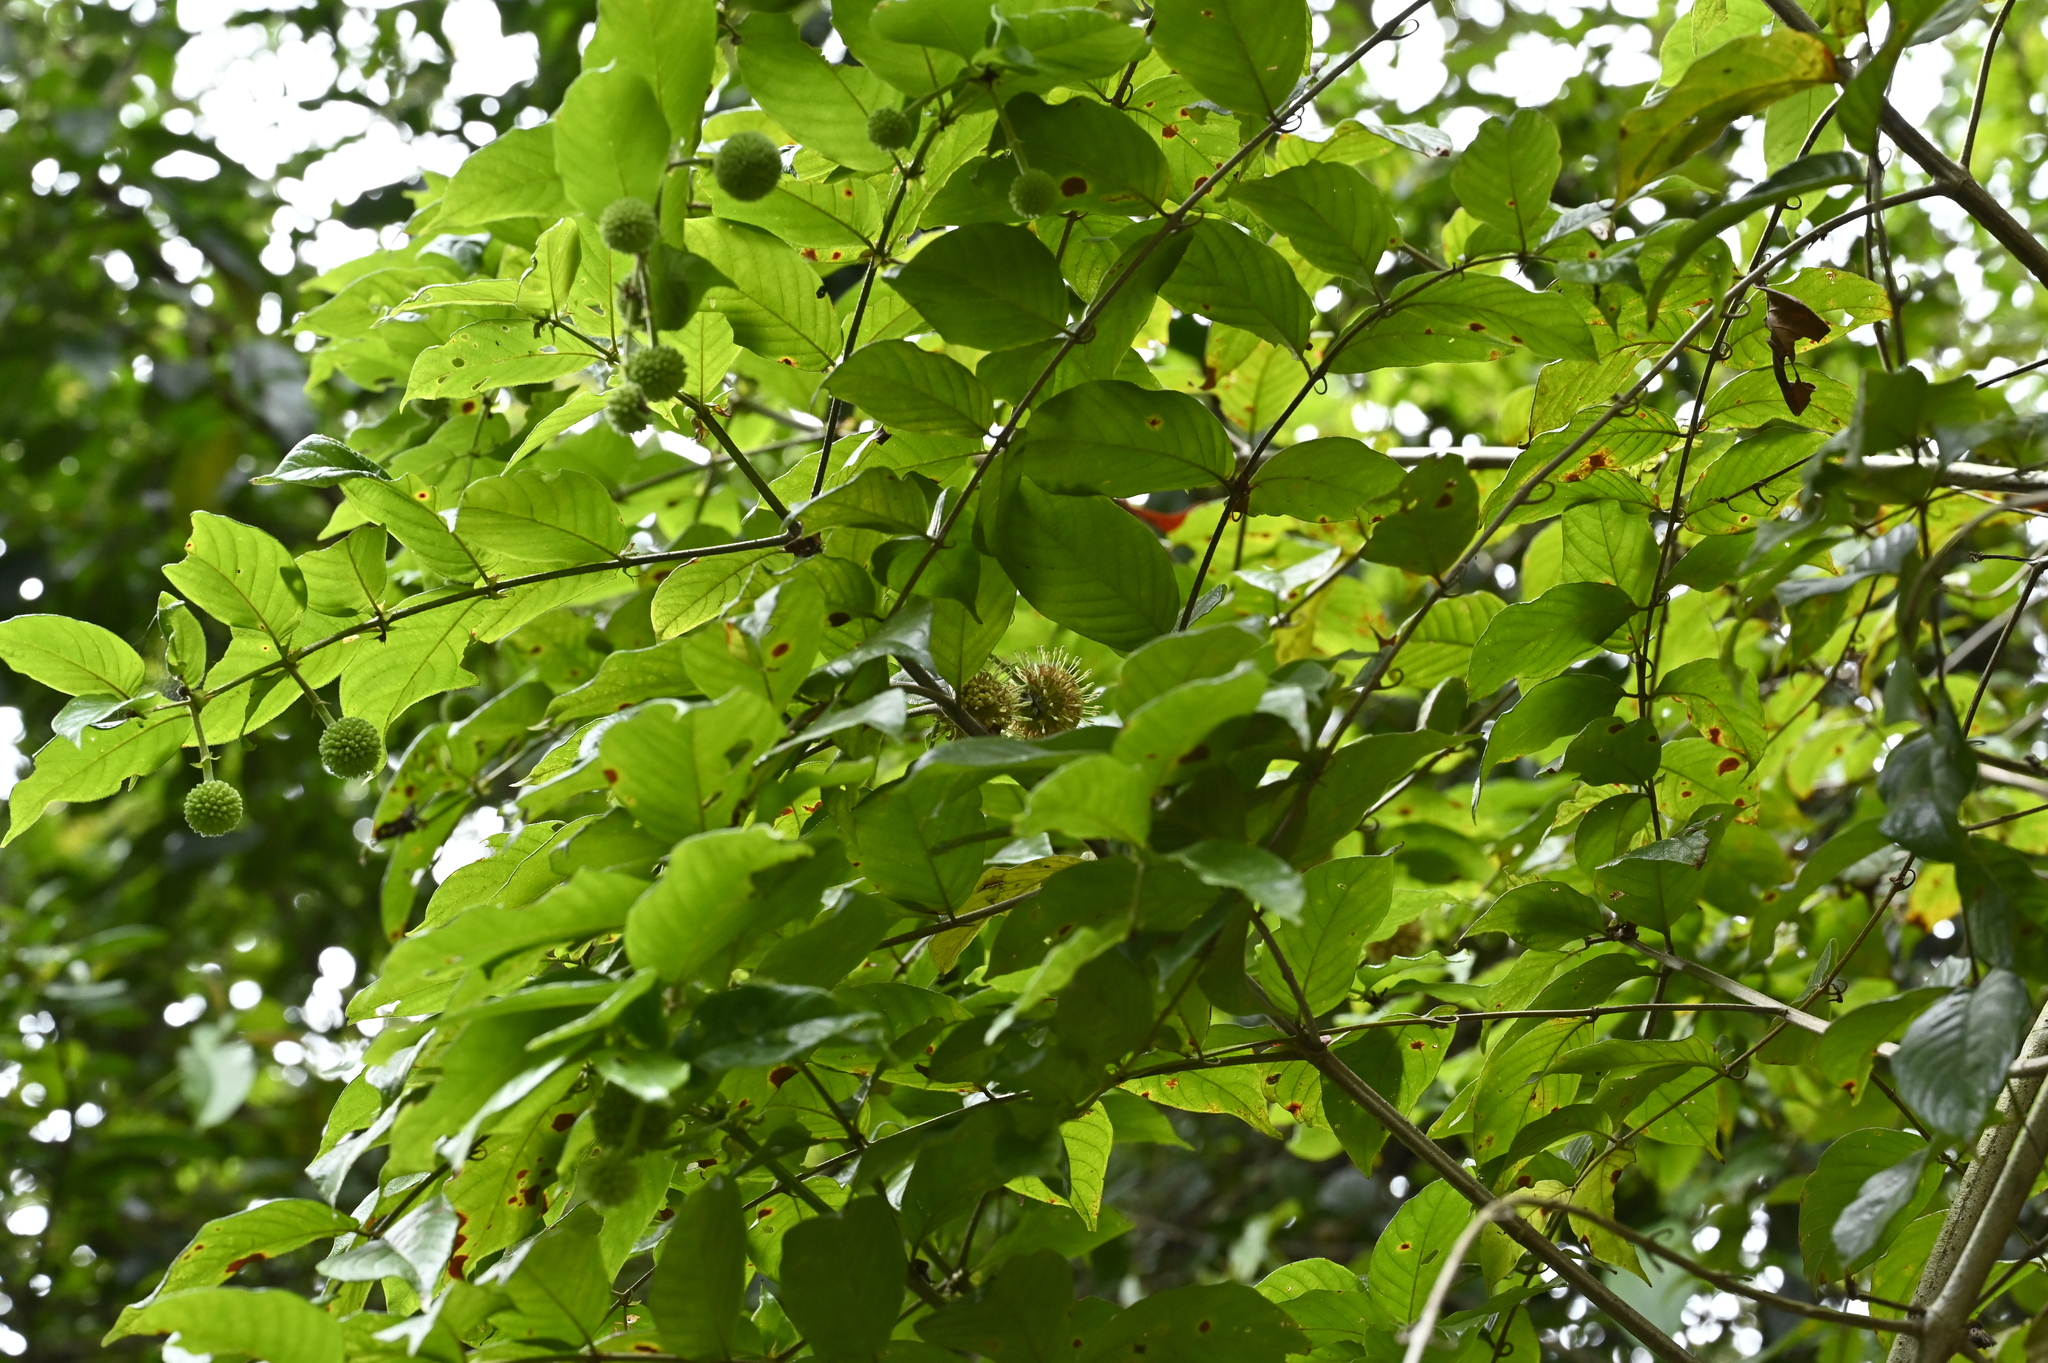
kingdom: Plantae
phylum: Tracheophyta
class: Magnoliopsida
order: Gentianales
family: Rubiaceae
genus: Uncaria
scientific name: Uncaria hirsuta
